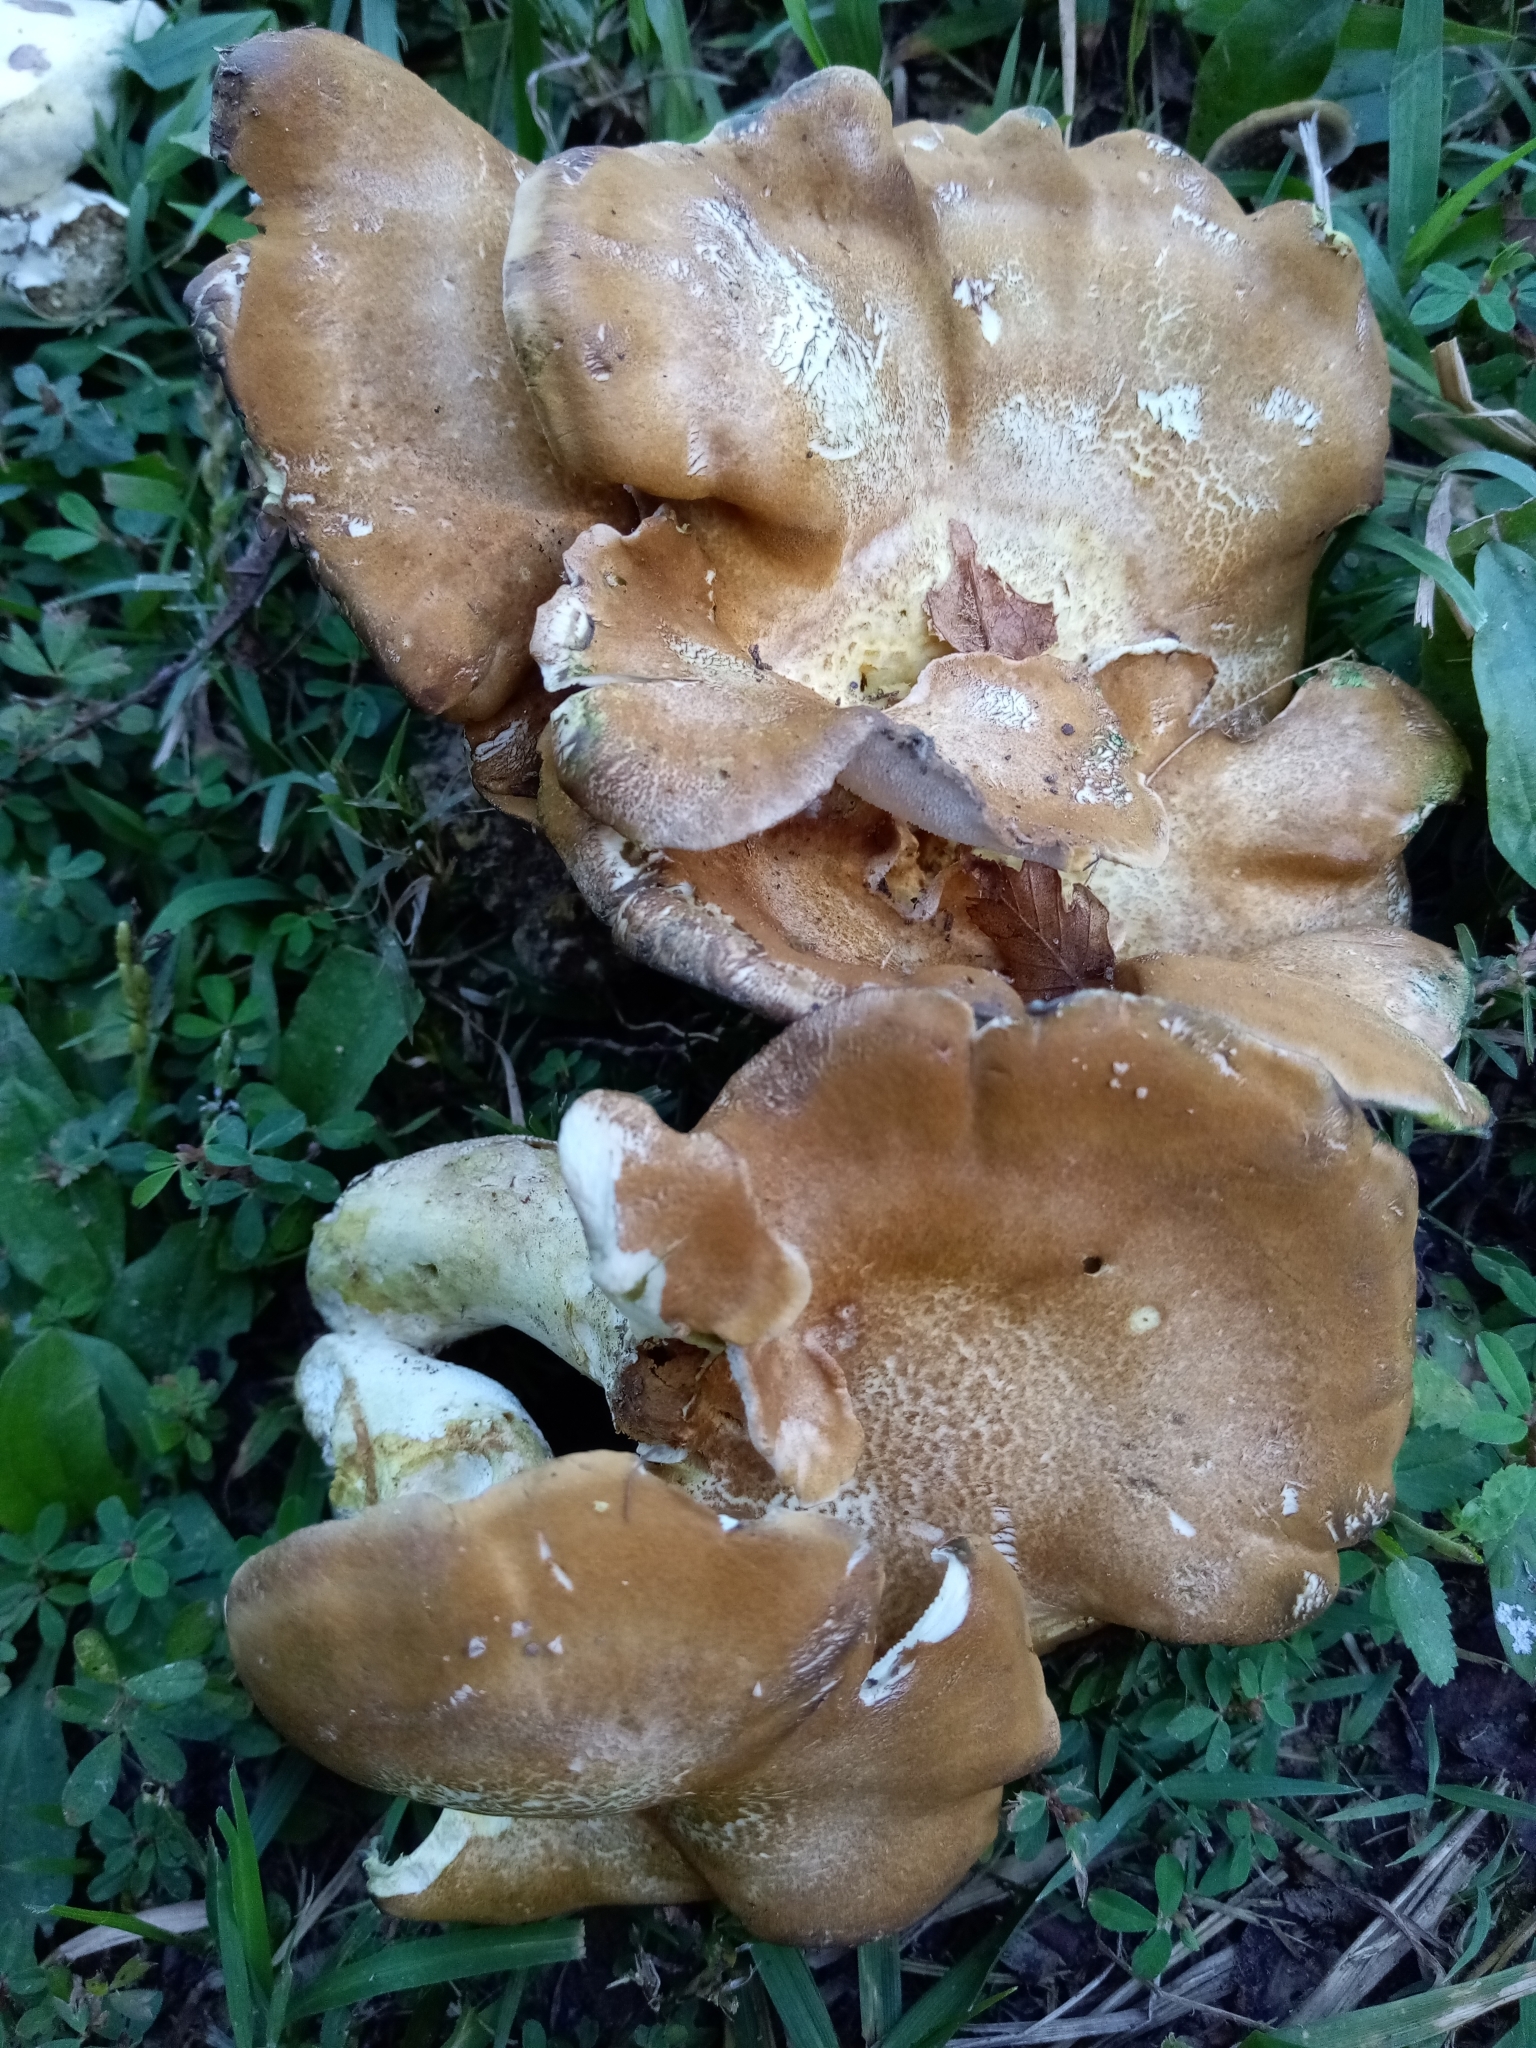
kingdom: Fungi
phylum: Basidiomycota
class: Agaricomycetes
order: Russulales
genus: Laeticutis
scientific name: Laeticutis cristata
